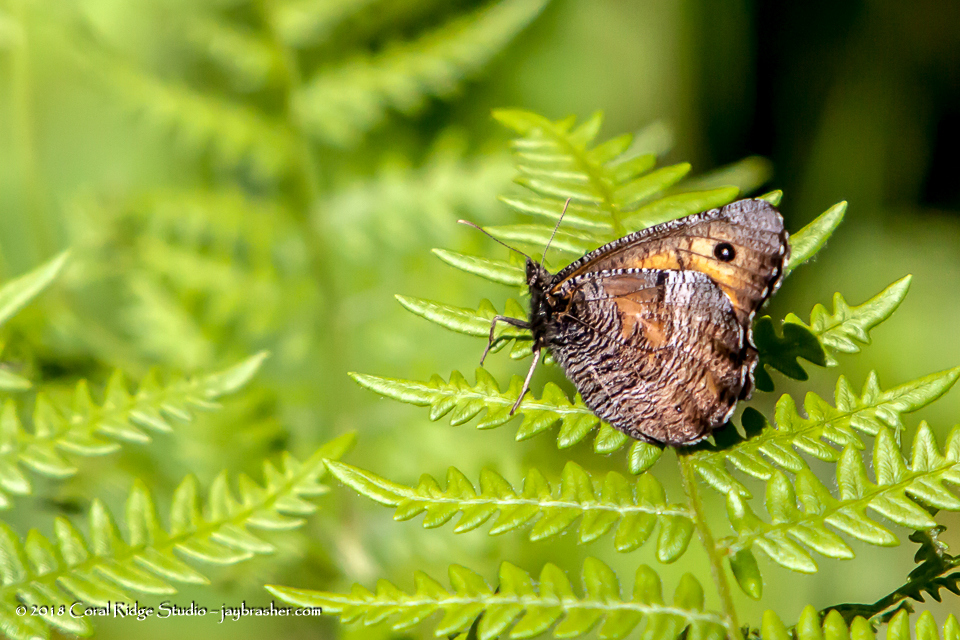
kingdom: Animalia
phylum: Arthropoda
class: Insecta
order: Lepidoptera
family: Nymphalidae
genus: Oeneis
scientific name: Oeneis macounii
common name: Macoun's arctic
